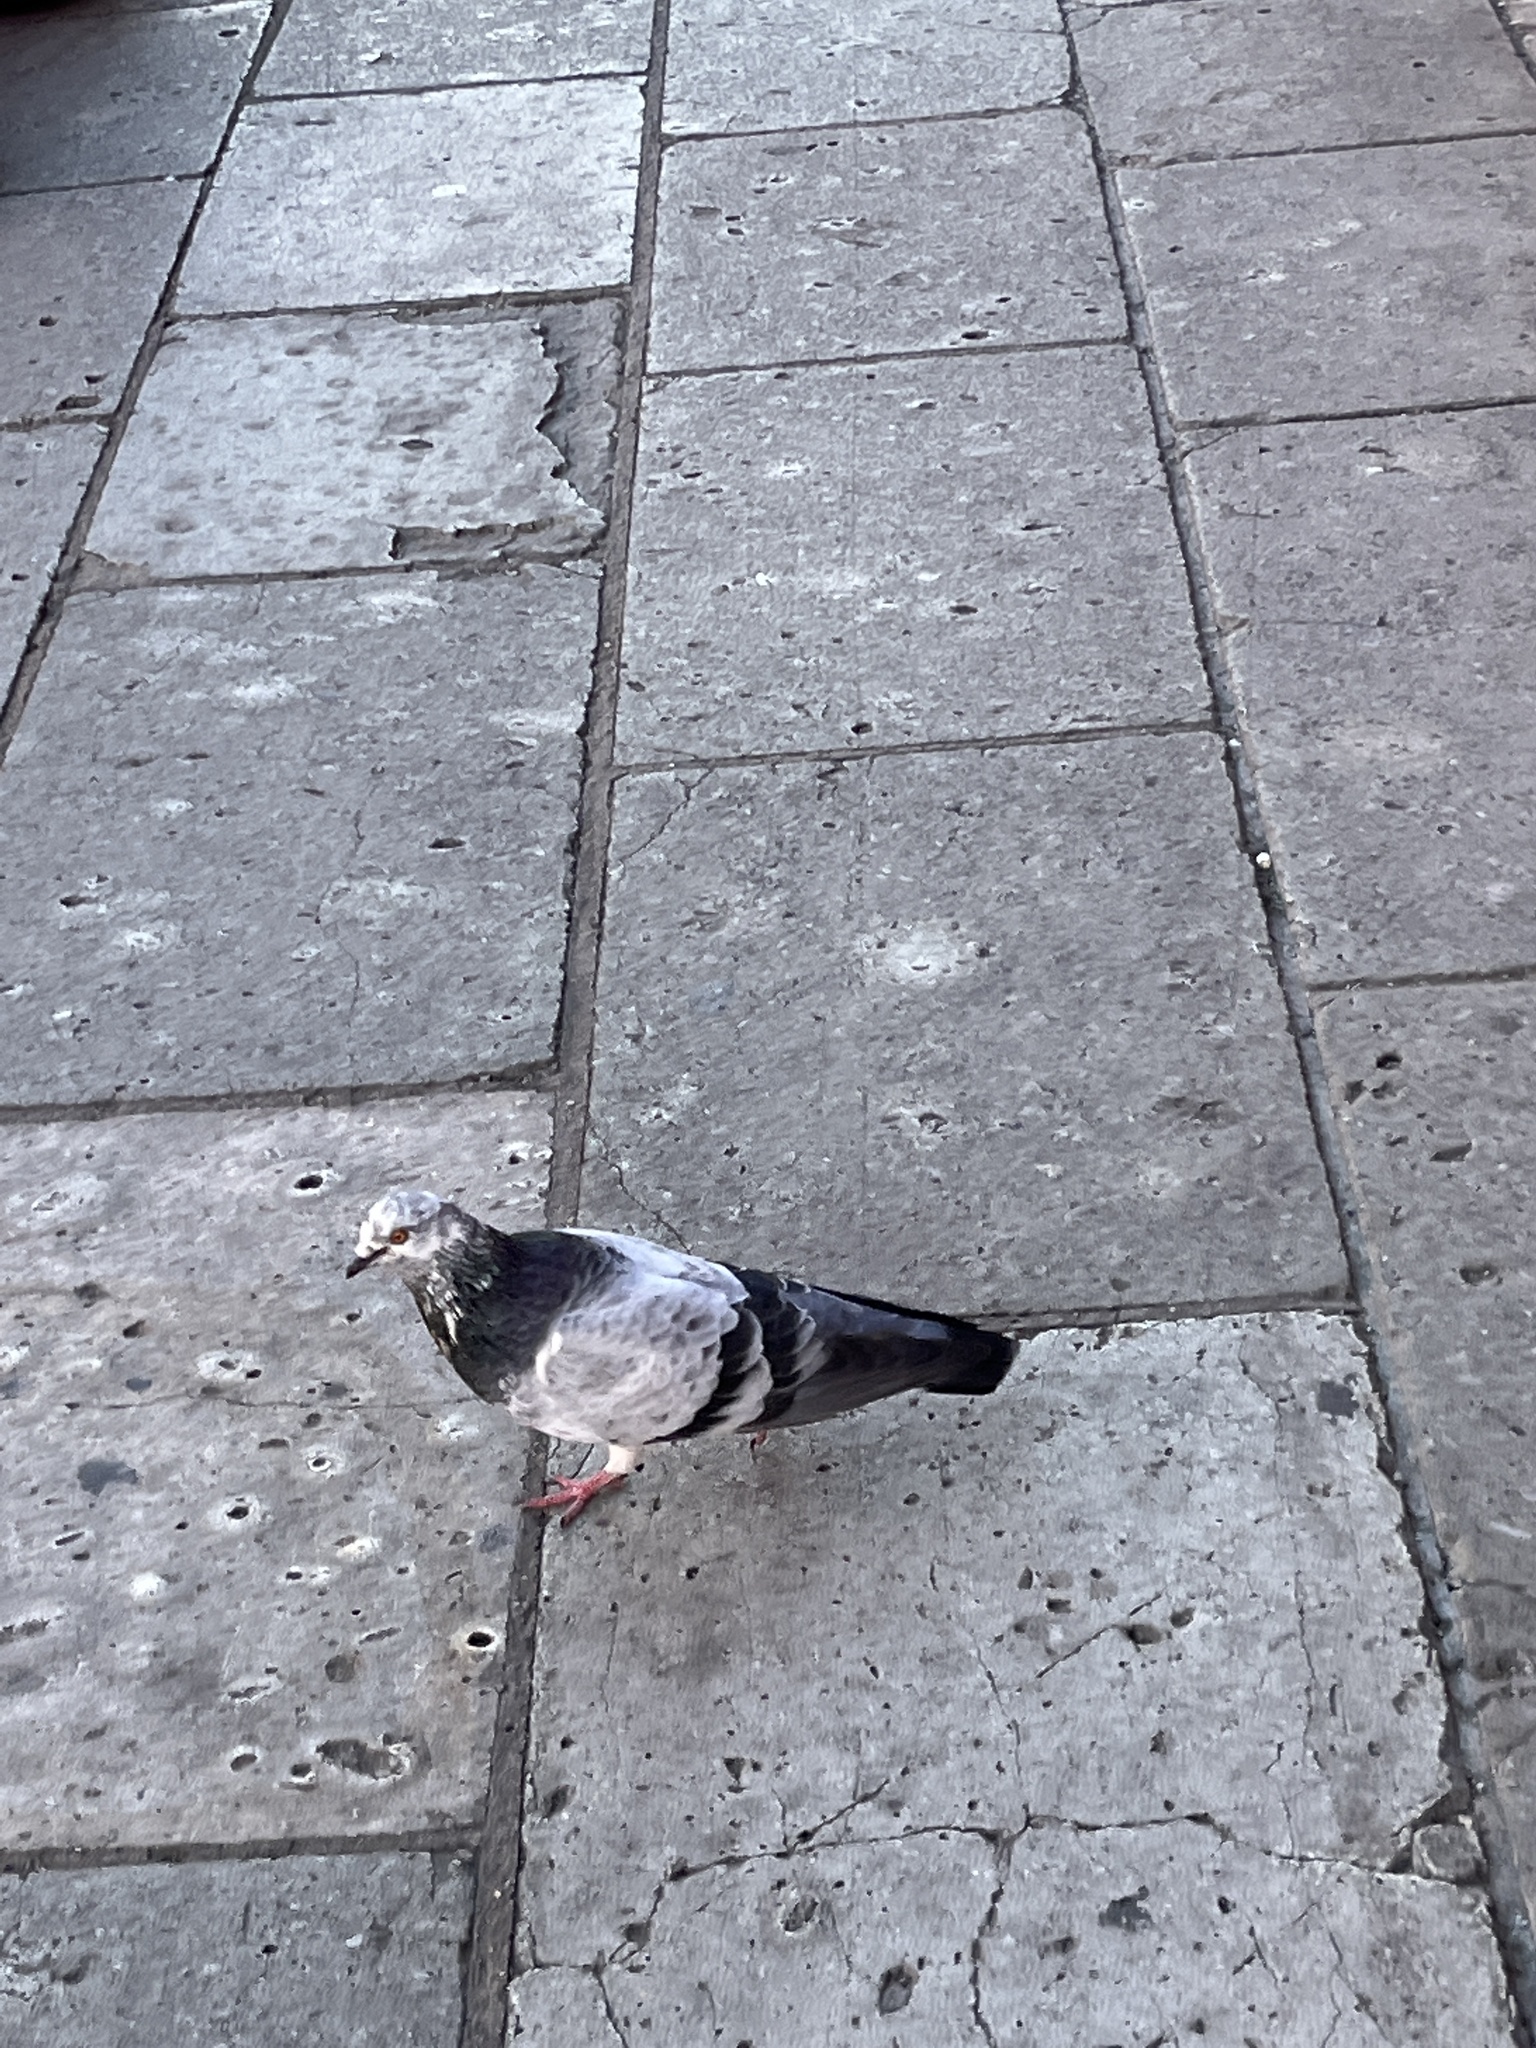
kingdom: Animalia
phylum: Chordata
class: Aves
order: Columbiformes
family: Columbidae
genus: Columba
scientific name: Columba livia
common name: Rock pigeon
